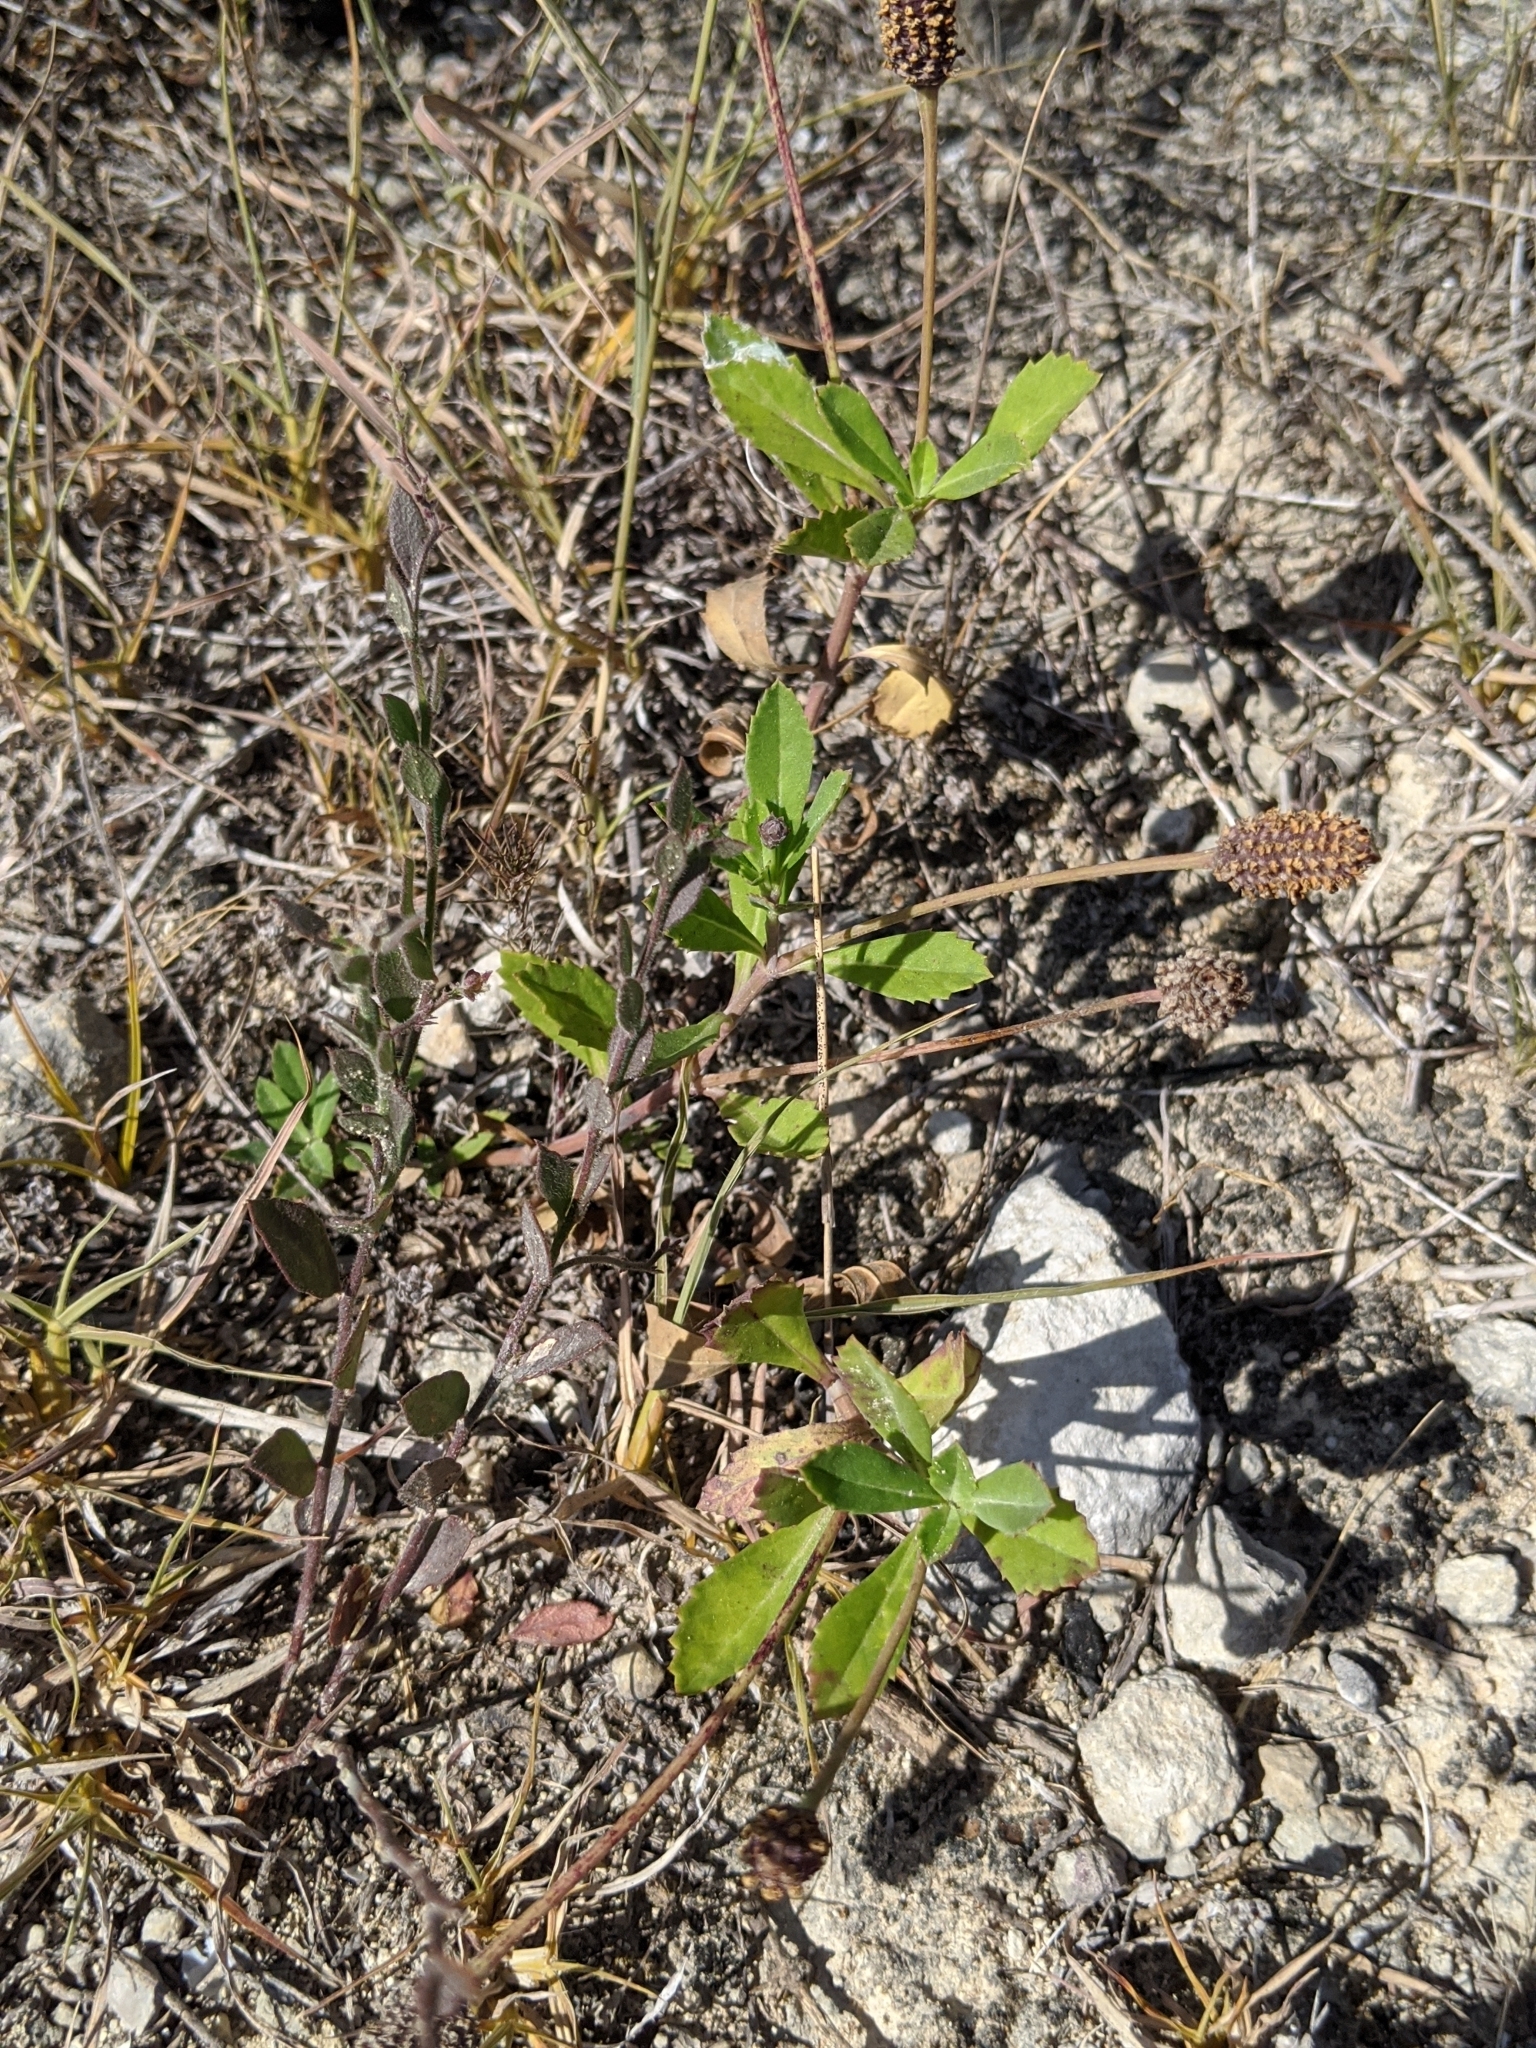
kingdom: Plantae
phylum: Tracheophyta
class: Magnoliopsida
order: Lamiales
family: Verbenaceae
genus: Phyla
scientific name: Phyla nodiflora
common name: Frogfruit
